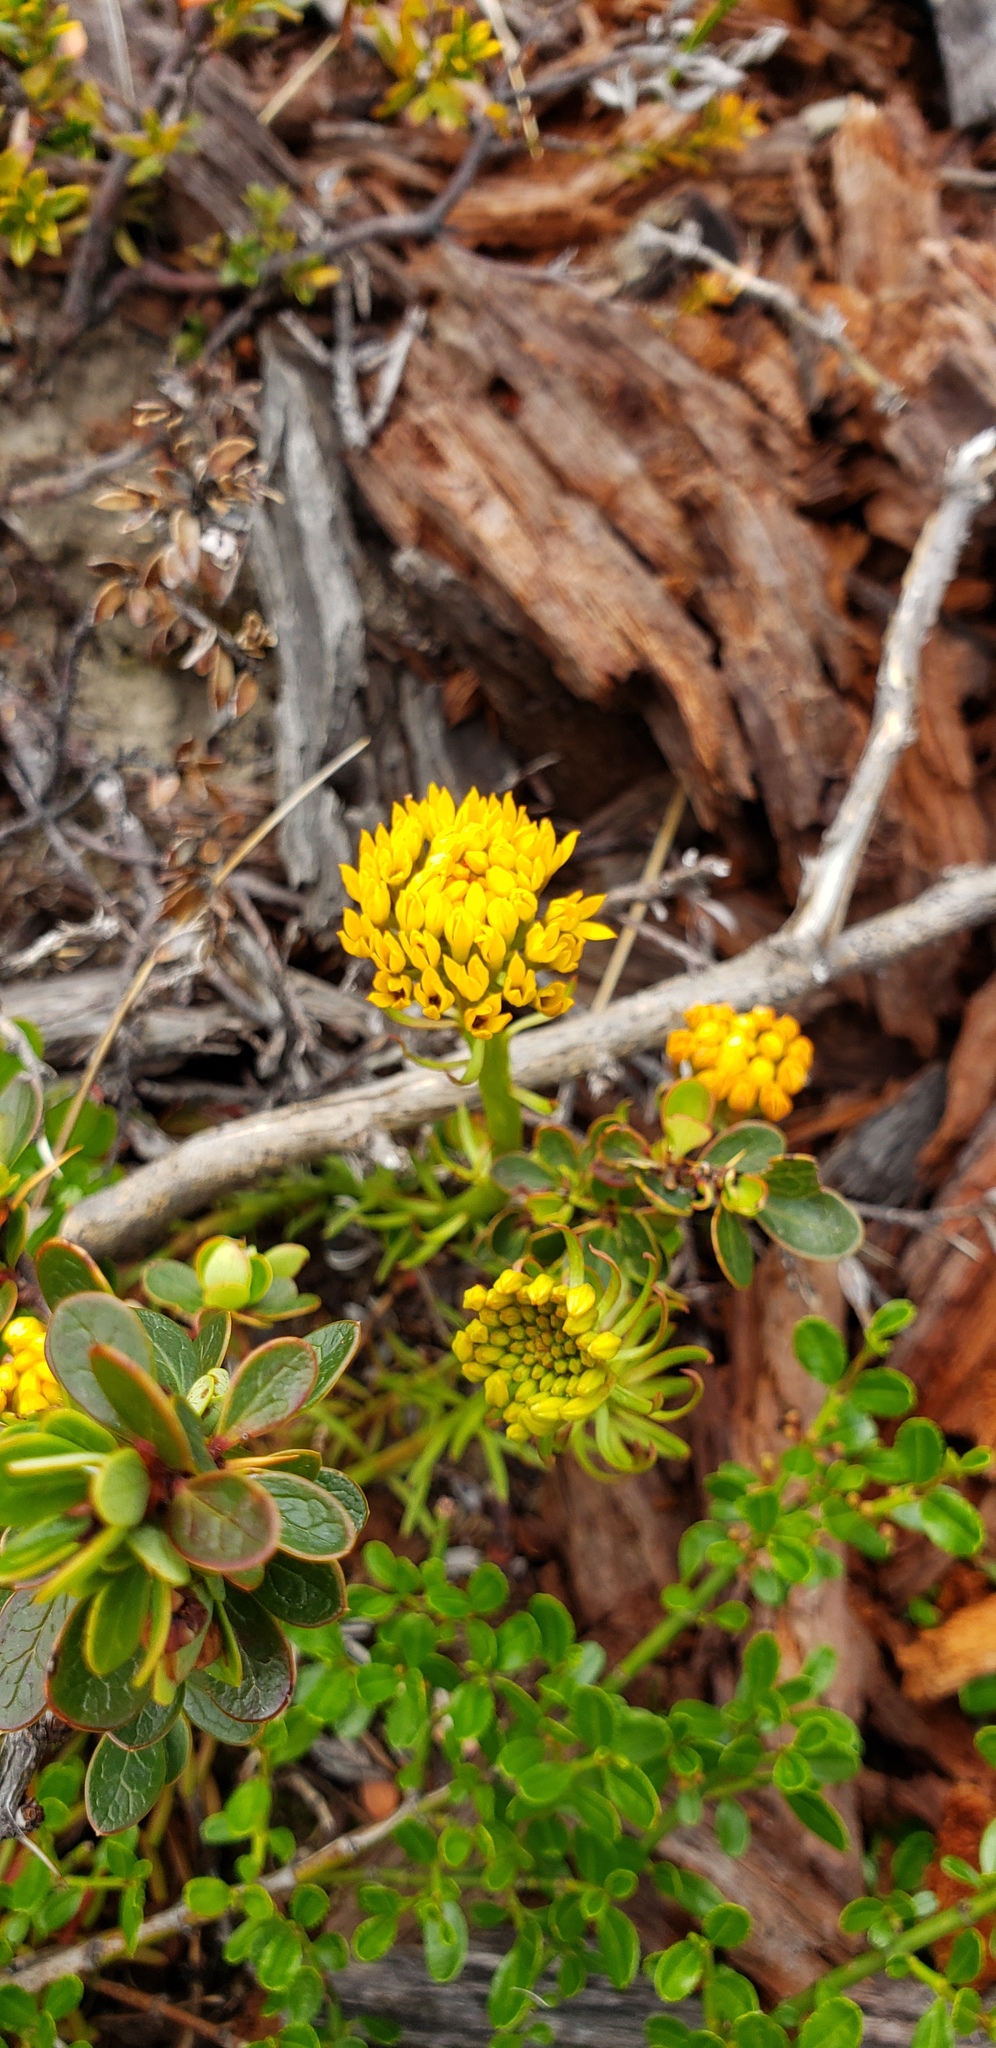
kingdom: Plantae
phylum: Tracheophyta
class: Magnoliopsida
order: Santalales
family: Schoepfiaceae
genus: Quinchamalium
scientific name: Quinchamalium chilense
